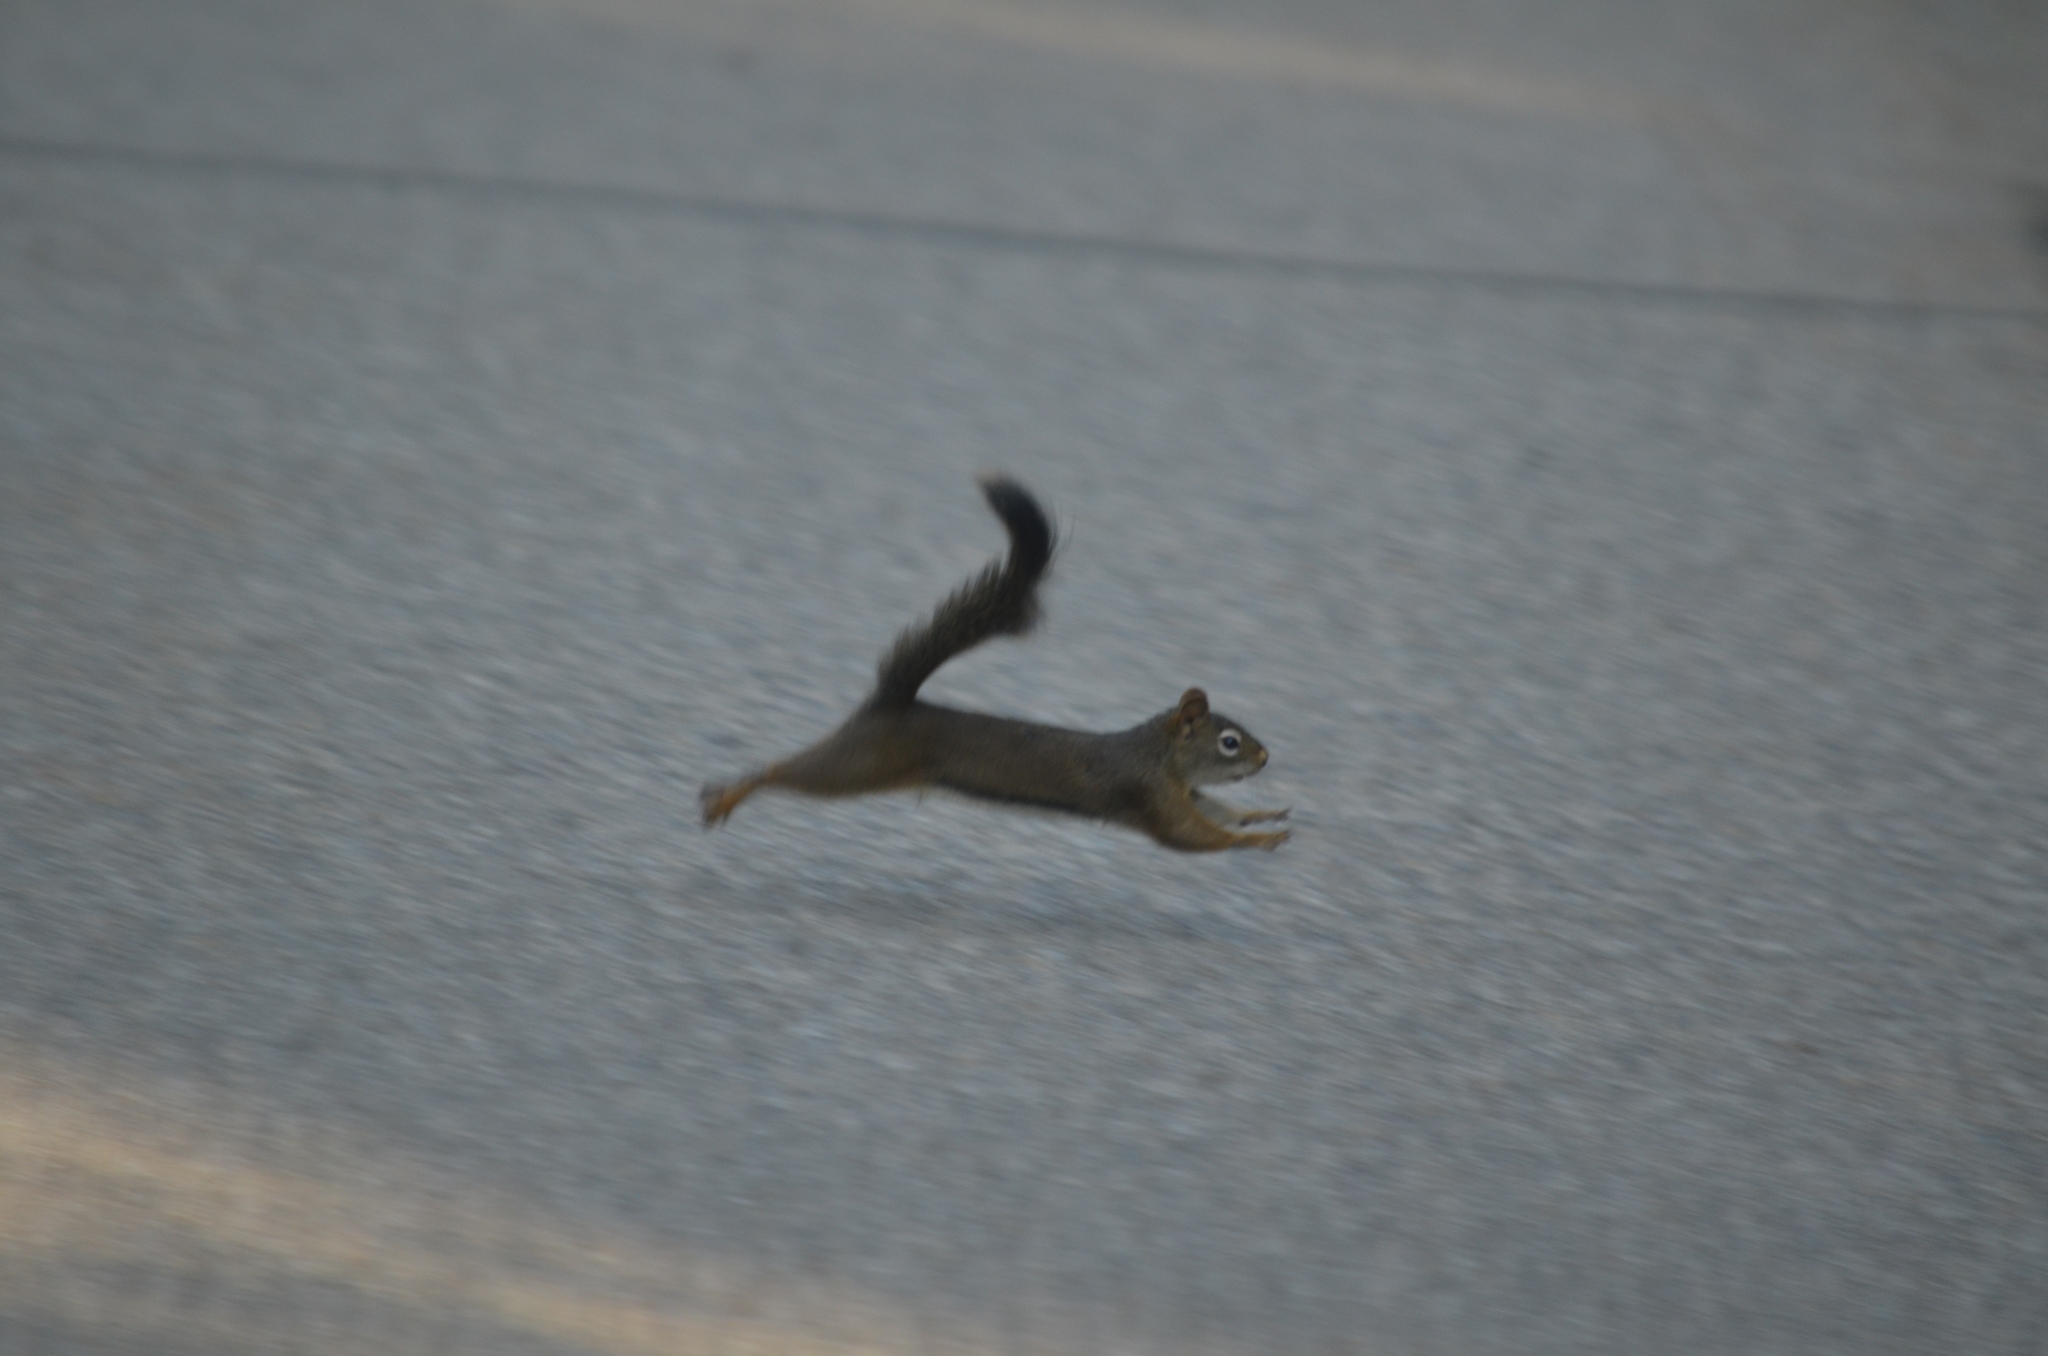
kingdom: Animalia
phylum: Chordata
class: Mammalia
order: Rodentia
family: Sciuridae
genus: Tamiasciurus
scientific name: Tamiasciurus hudsonicus
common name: Red squirrel
